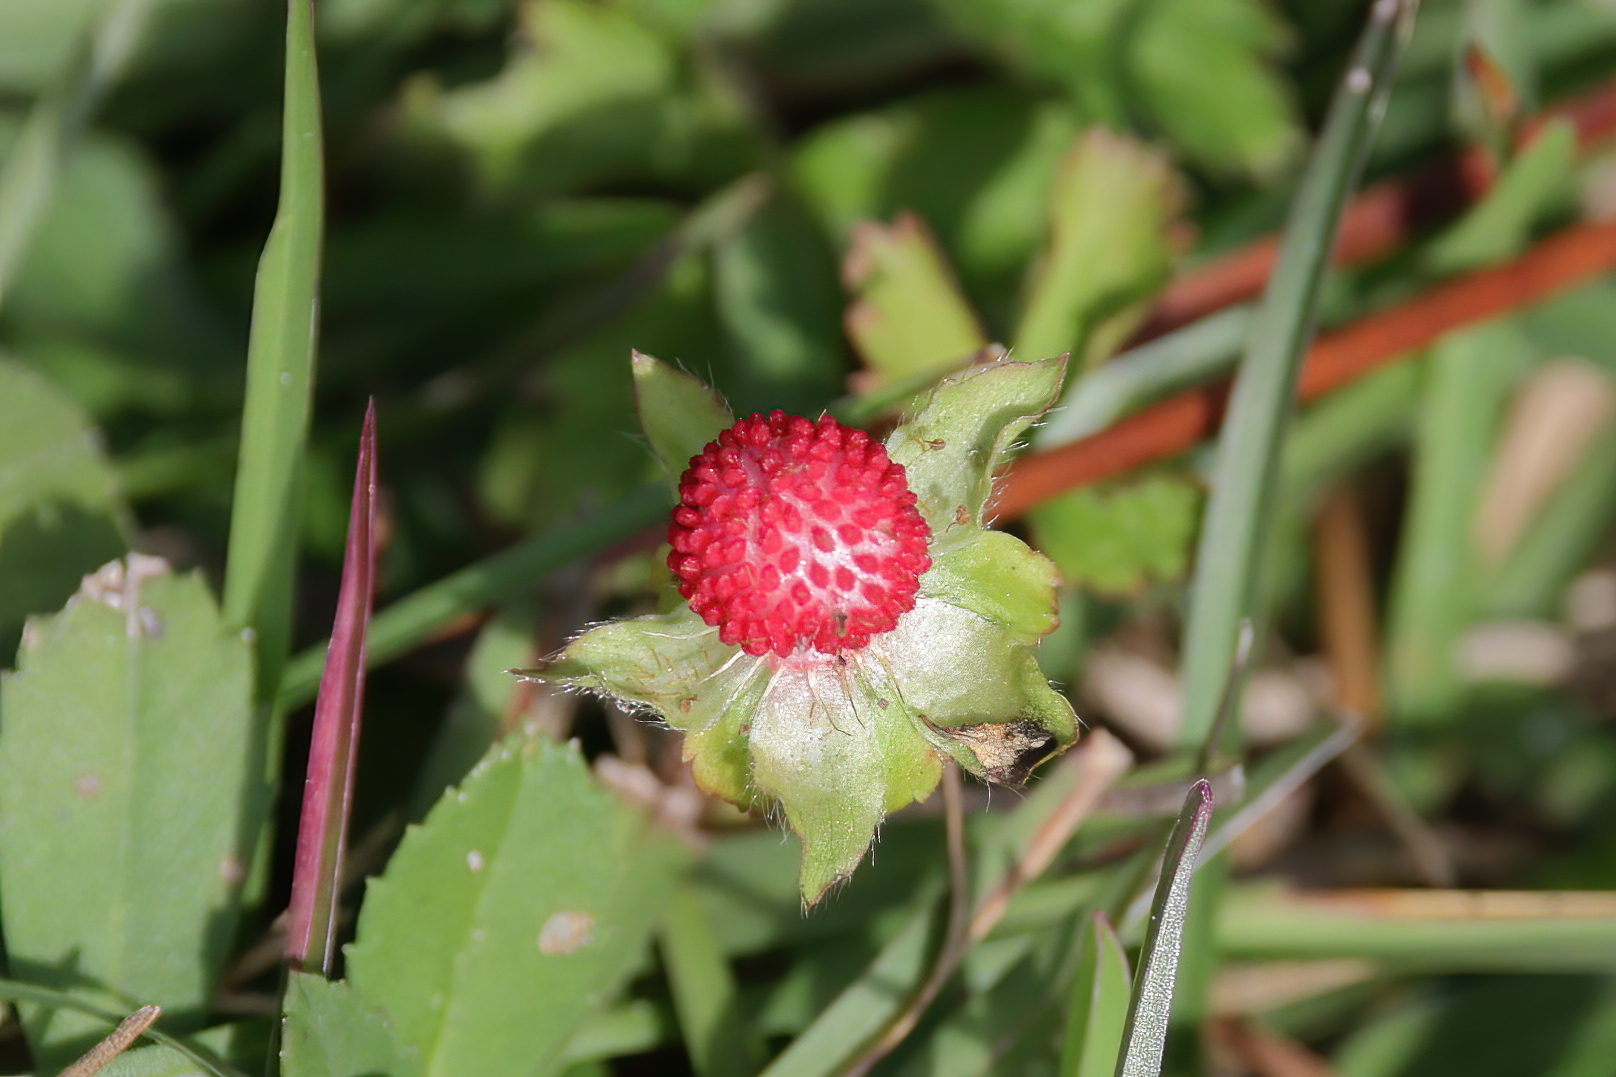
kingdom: Plantae
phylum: Tracheophyta
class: Magnoliopsida
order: Rosales
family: Rosaceae
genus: Potentilla
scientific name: Potentilla indica
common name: Yellow-flowered strawberry
